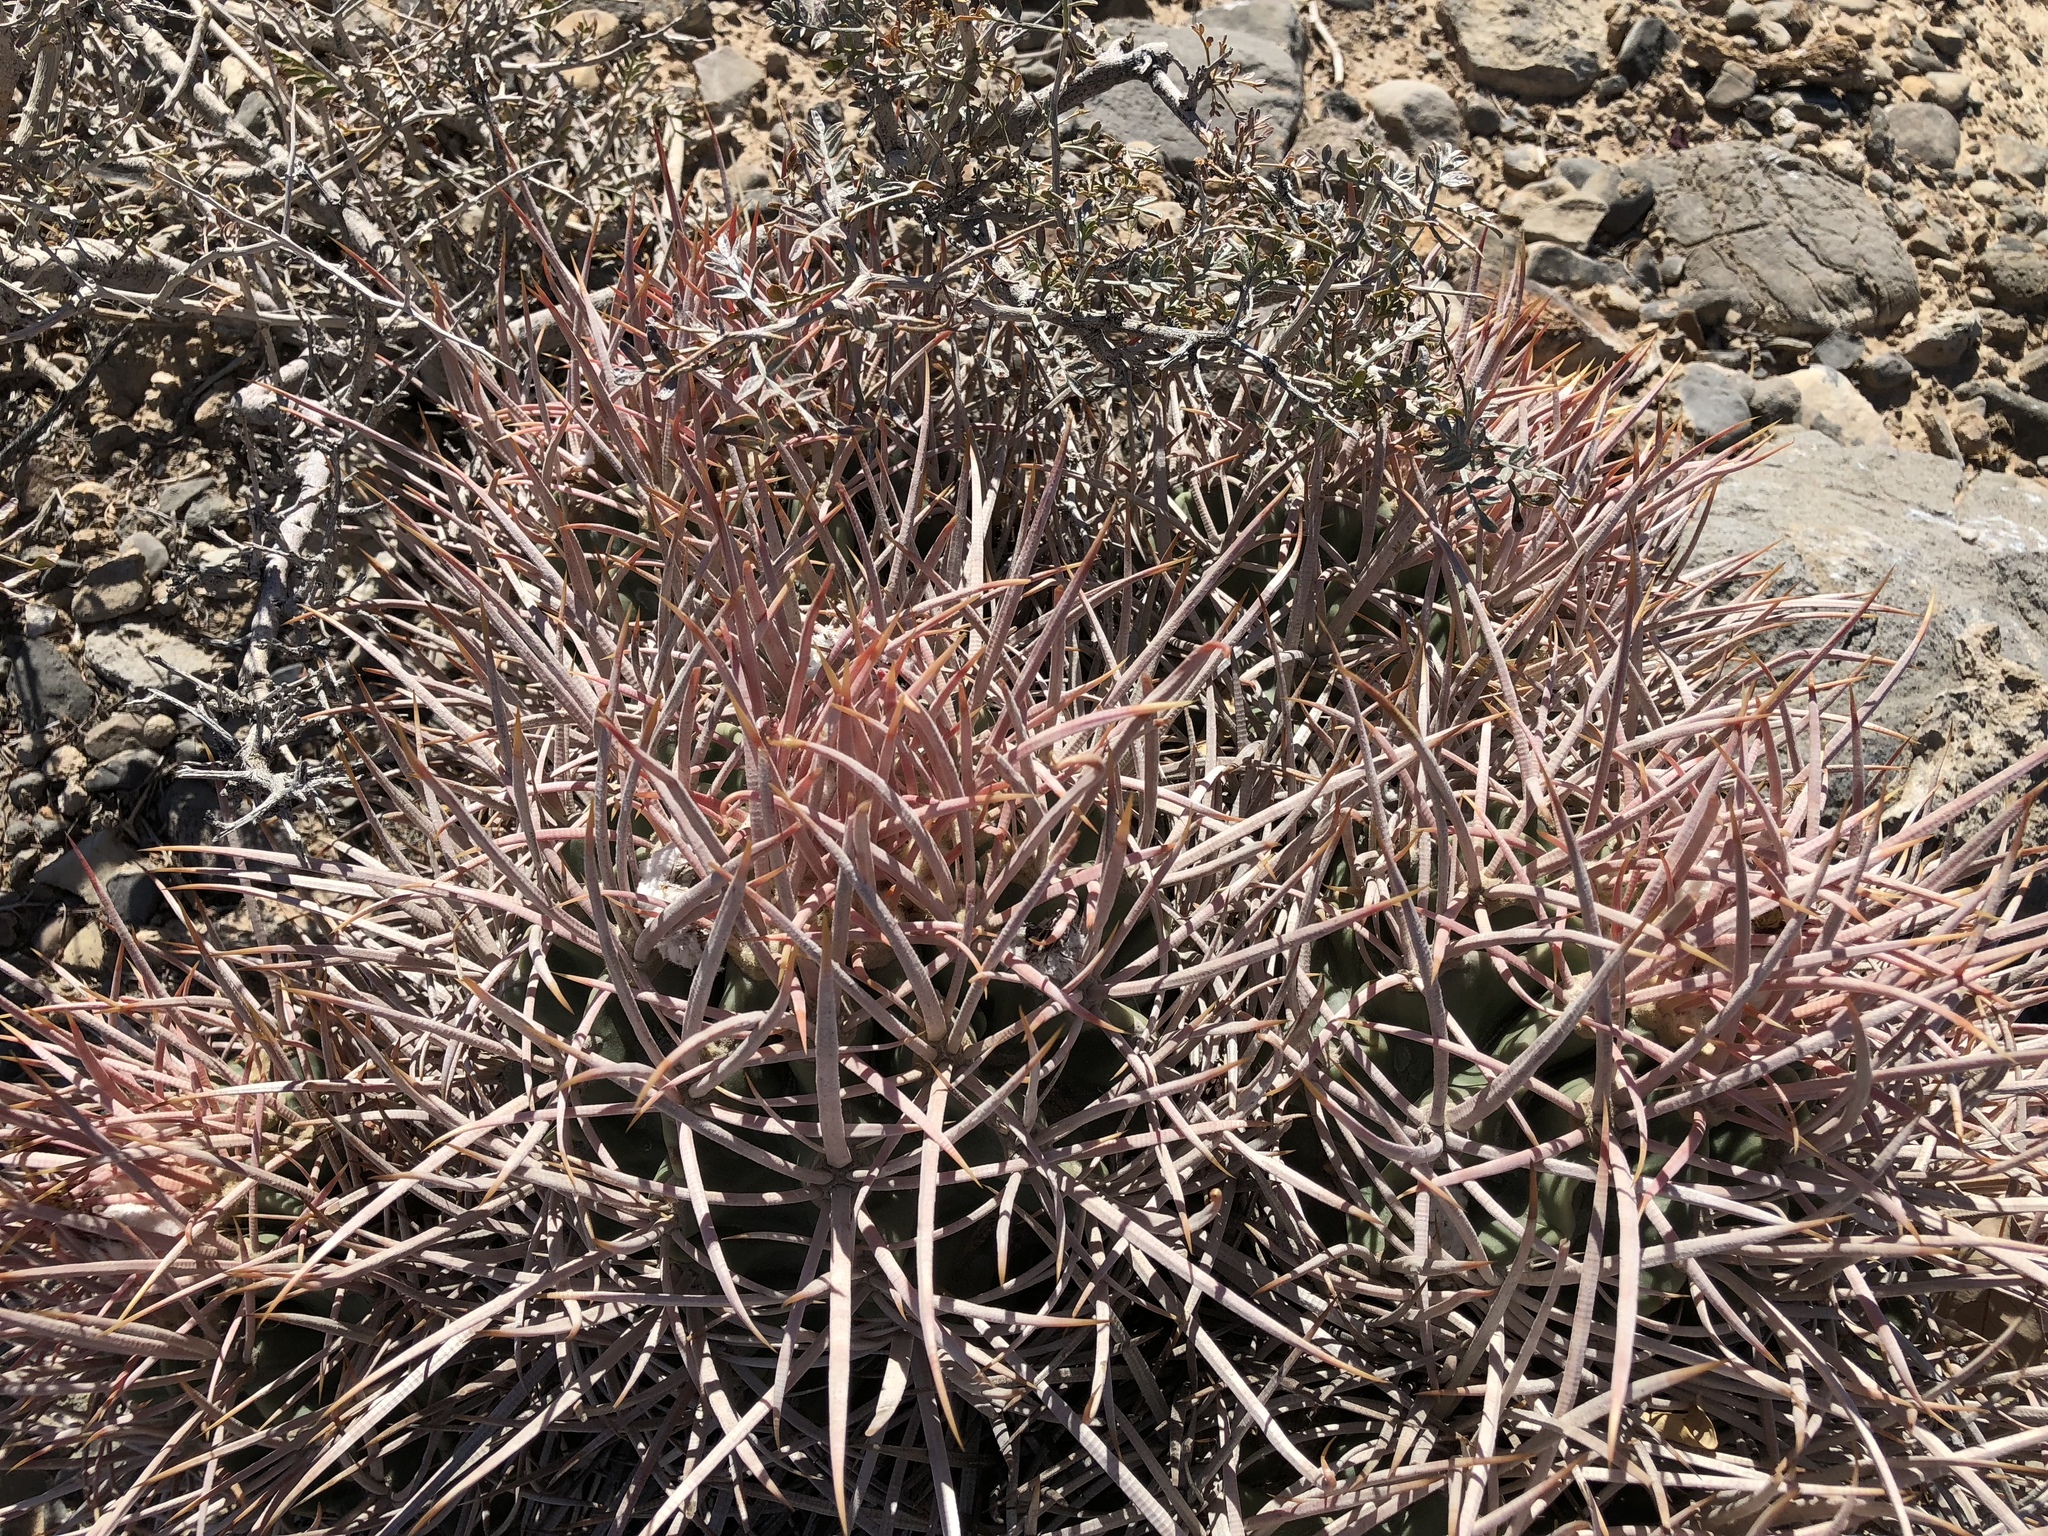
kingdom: Plantae
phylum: Tracheophyta
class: Magnoliopsida
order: Caryophyllales
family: Cactaceae
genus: Echinocactus
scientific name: Echinocactus polycephalus
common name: Cottontop cactus
